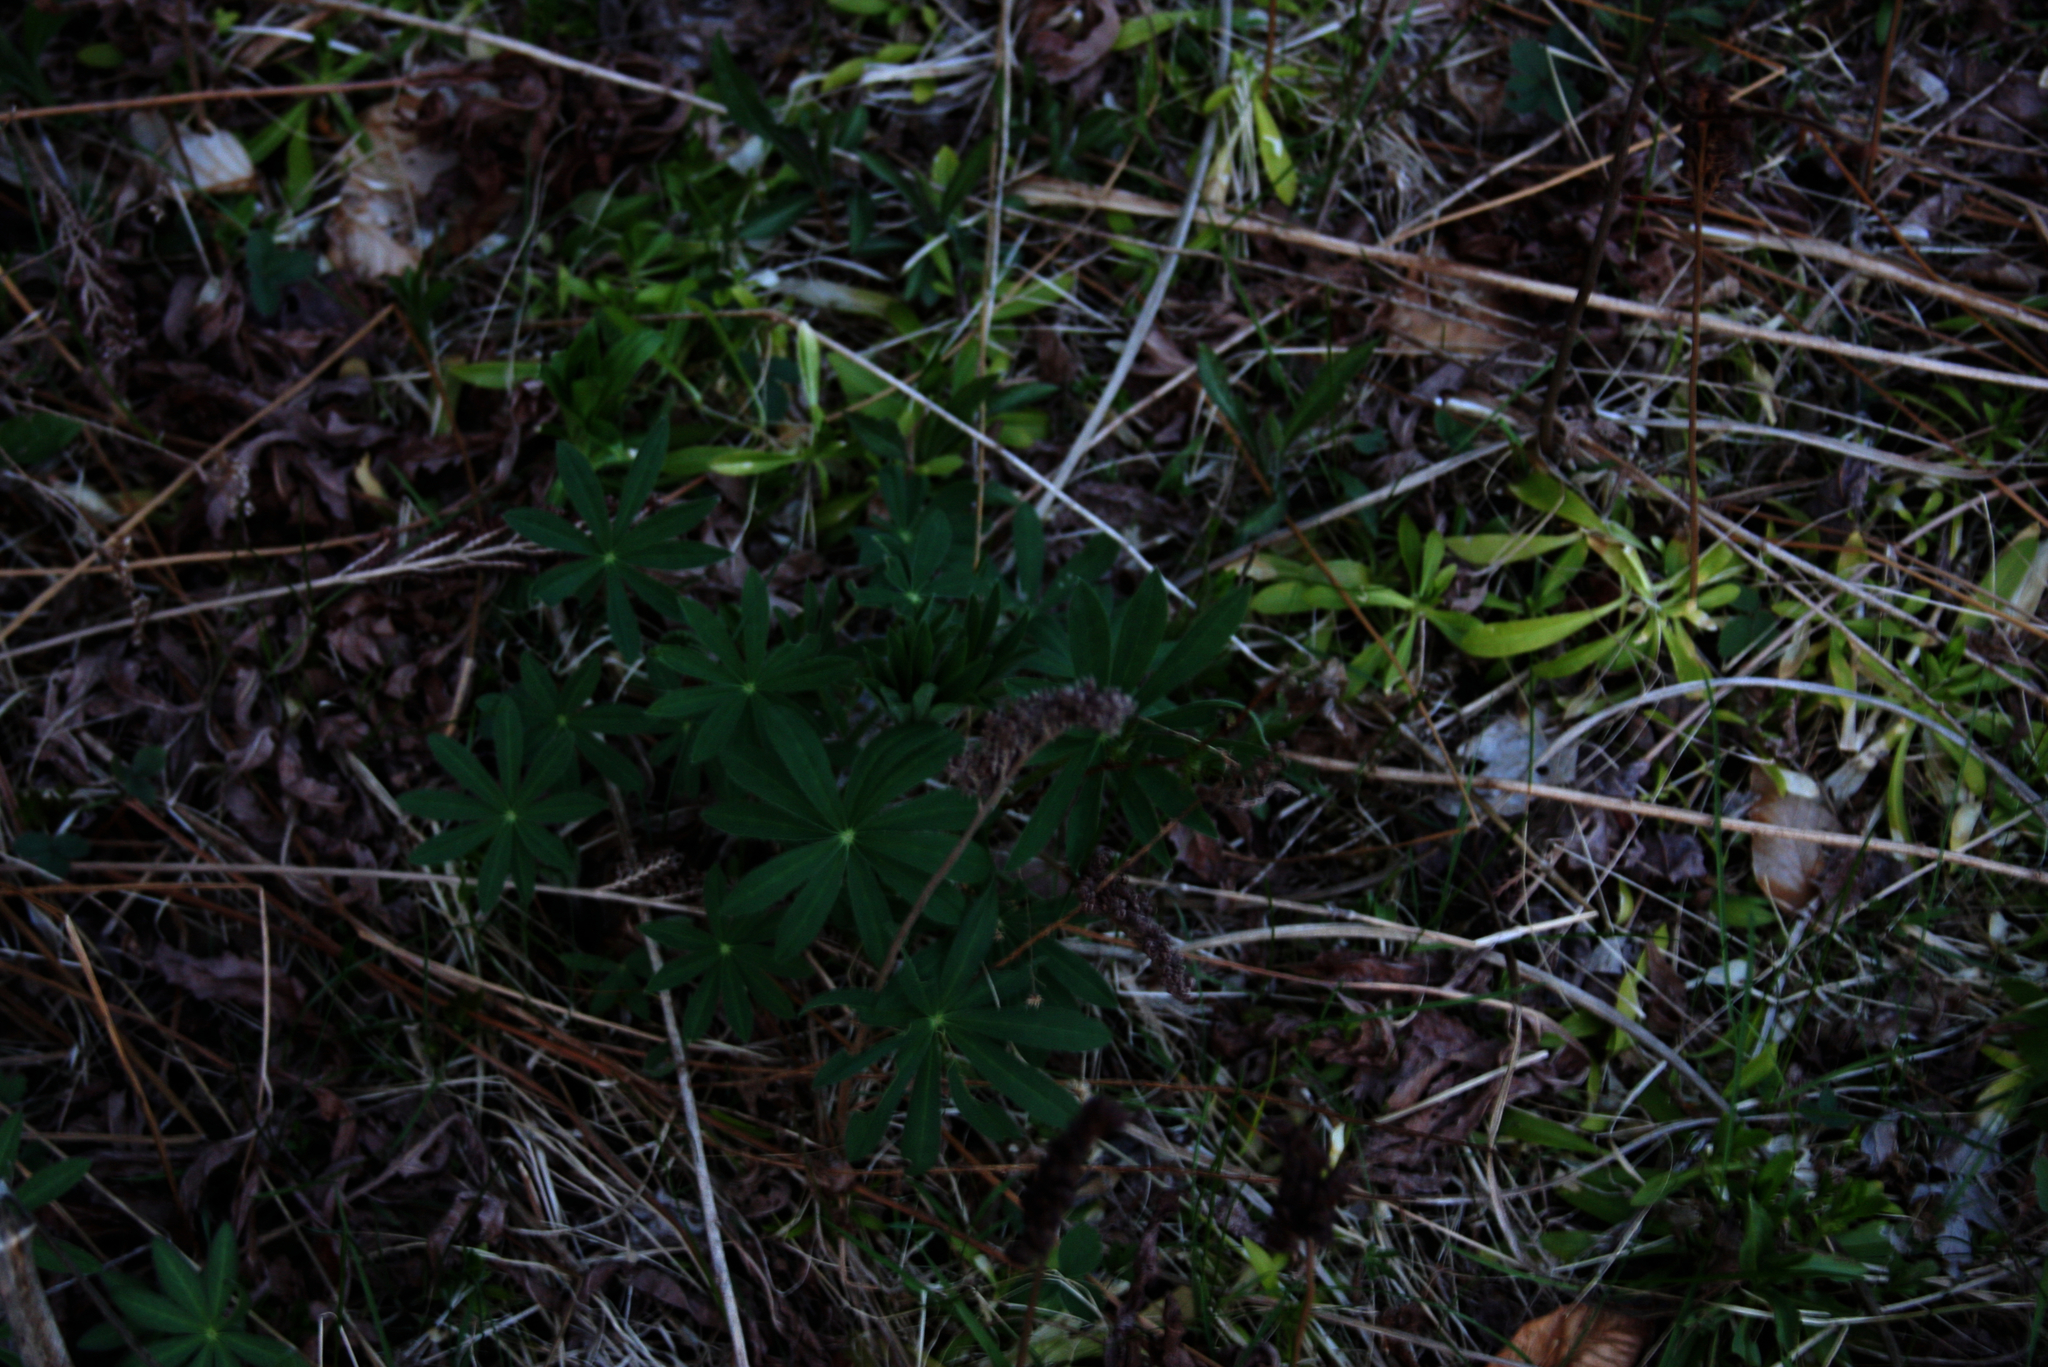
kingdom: Plantae
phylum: Tracheophyta
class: Magnoliopsida
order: Fabales
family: Fabaceae
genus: Lupinus
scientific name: Lupinus polyphyllus
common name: Garden lupin
